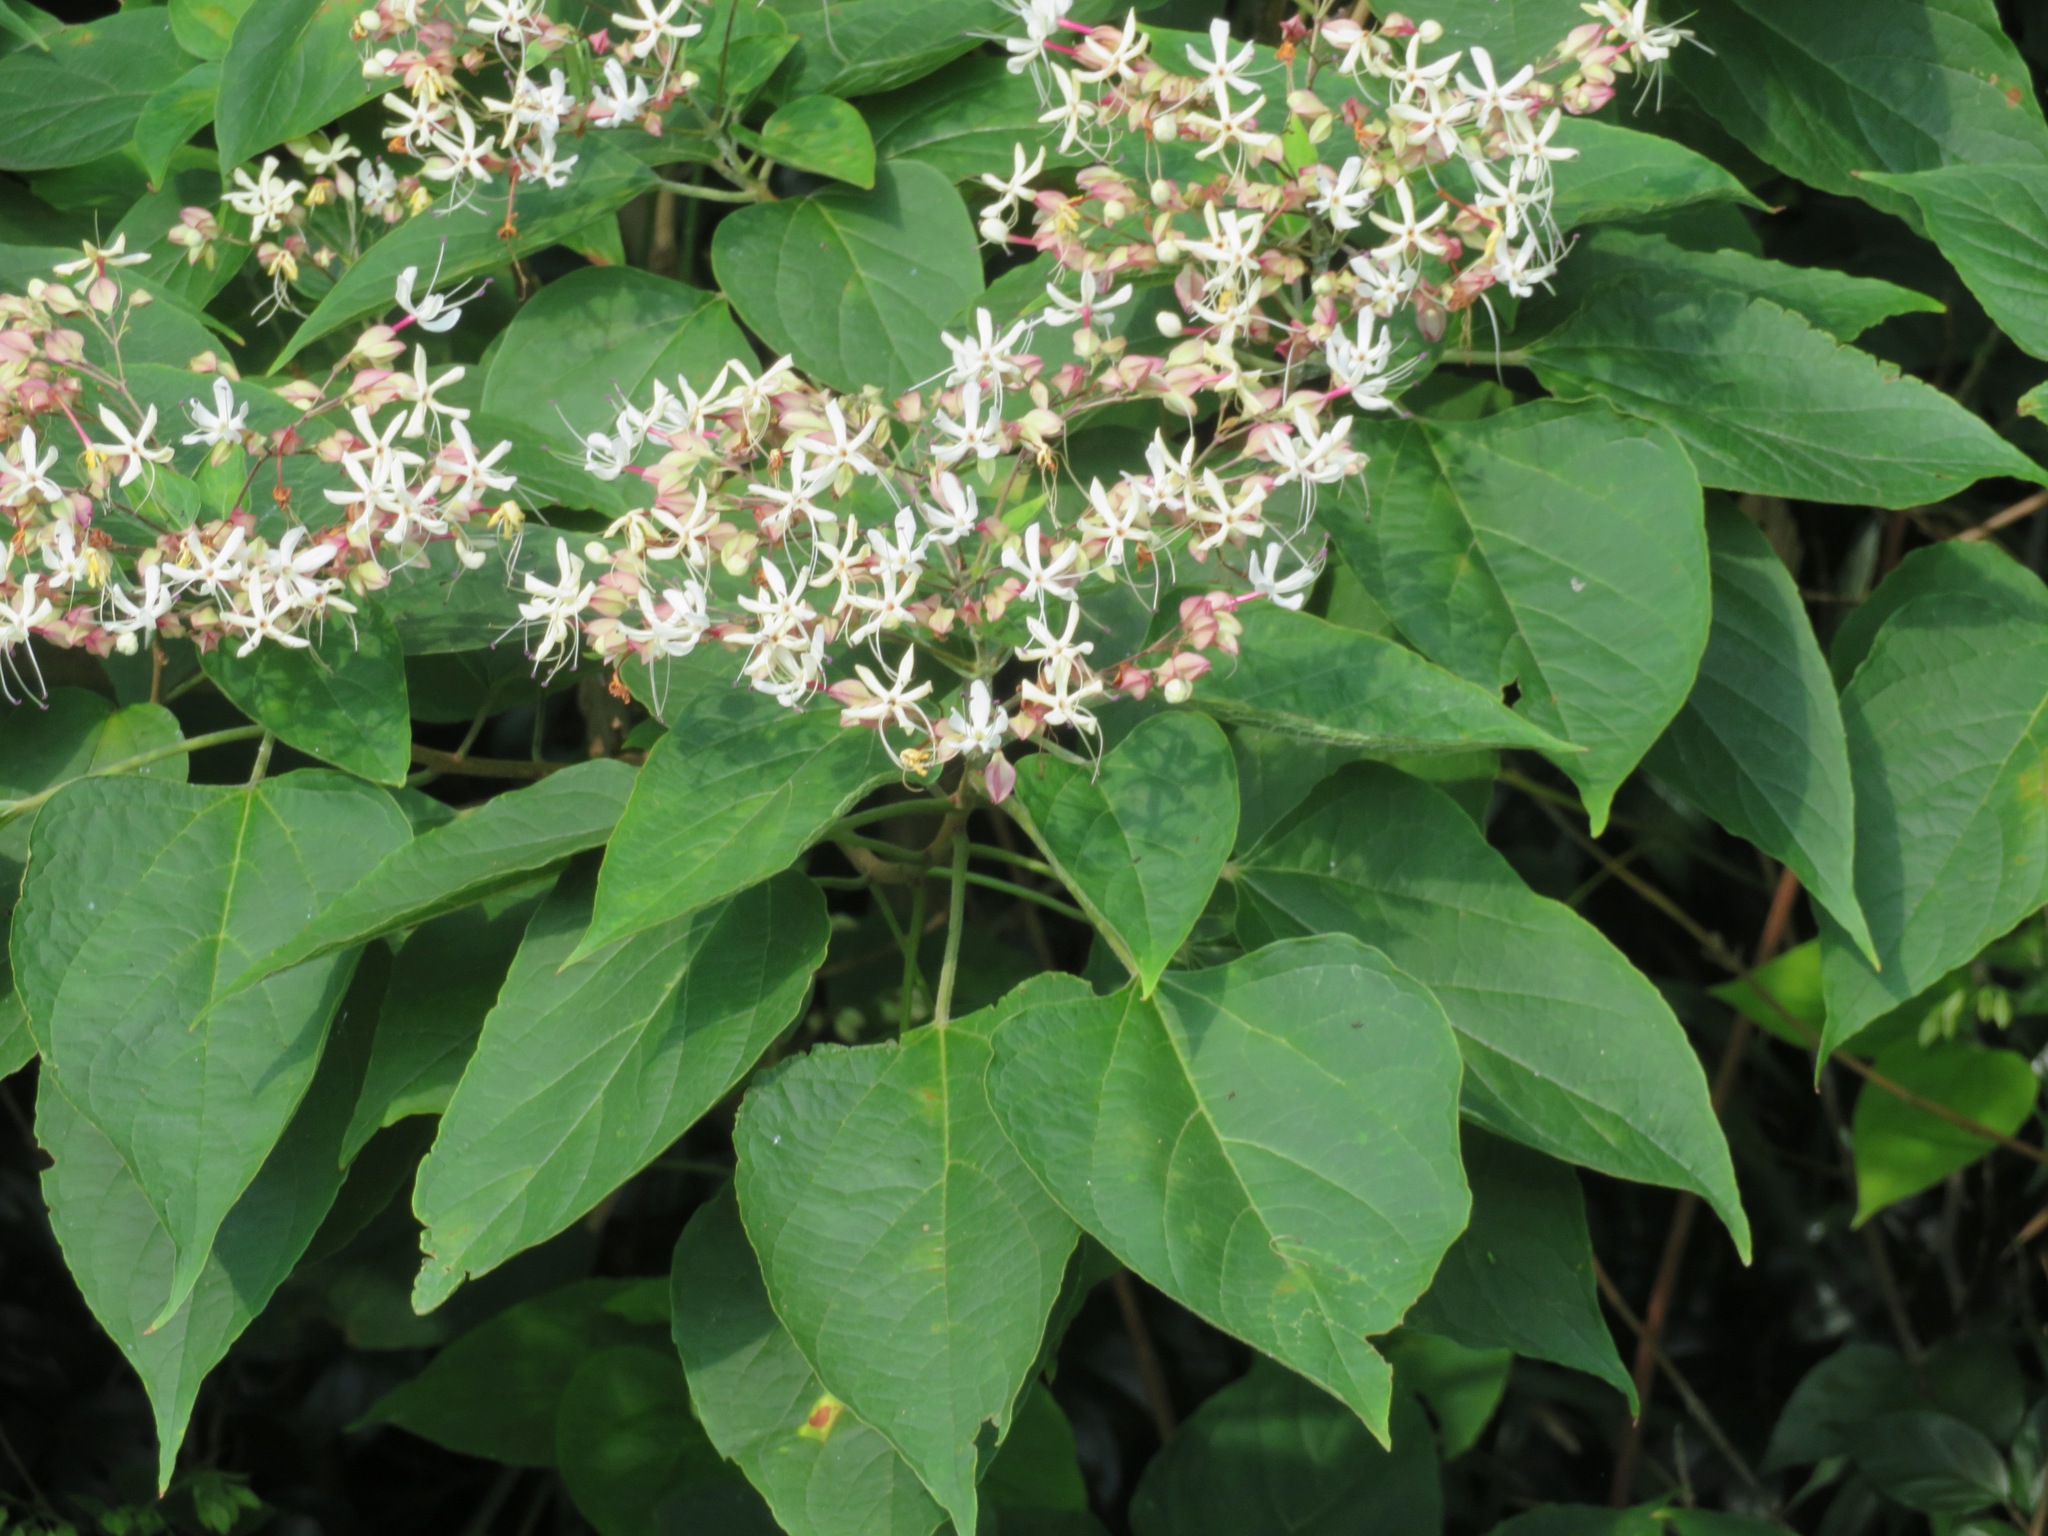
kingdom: Plantae
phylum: Tracheophyta
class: Magnoliopsida
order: Lamiales
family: Lamiaceae
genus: Clerodendrum
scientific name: Clerodendrum trichotomum
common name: Harlequin glorybower
